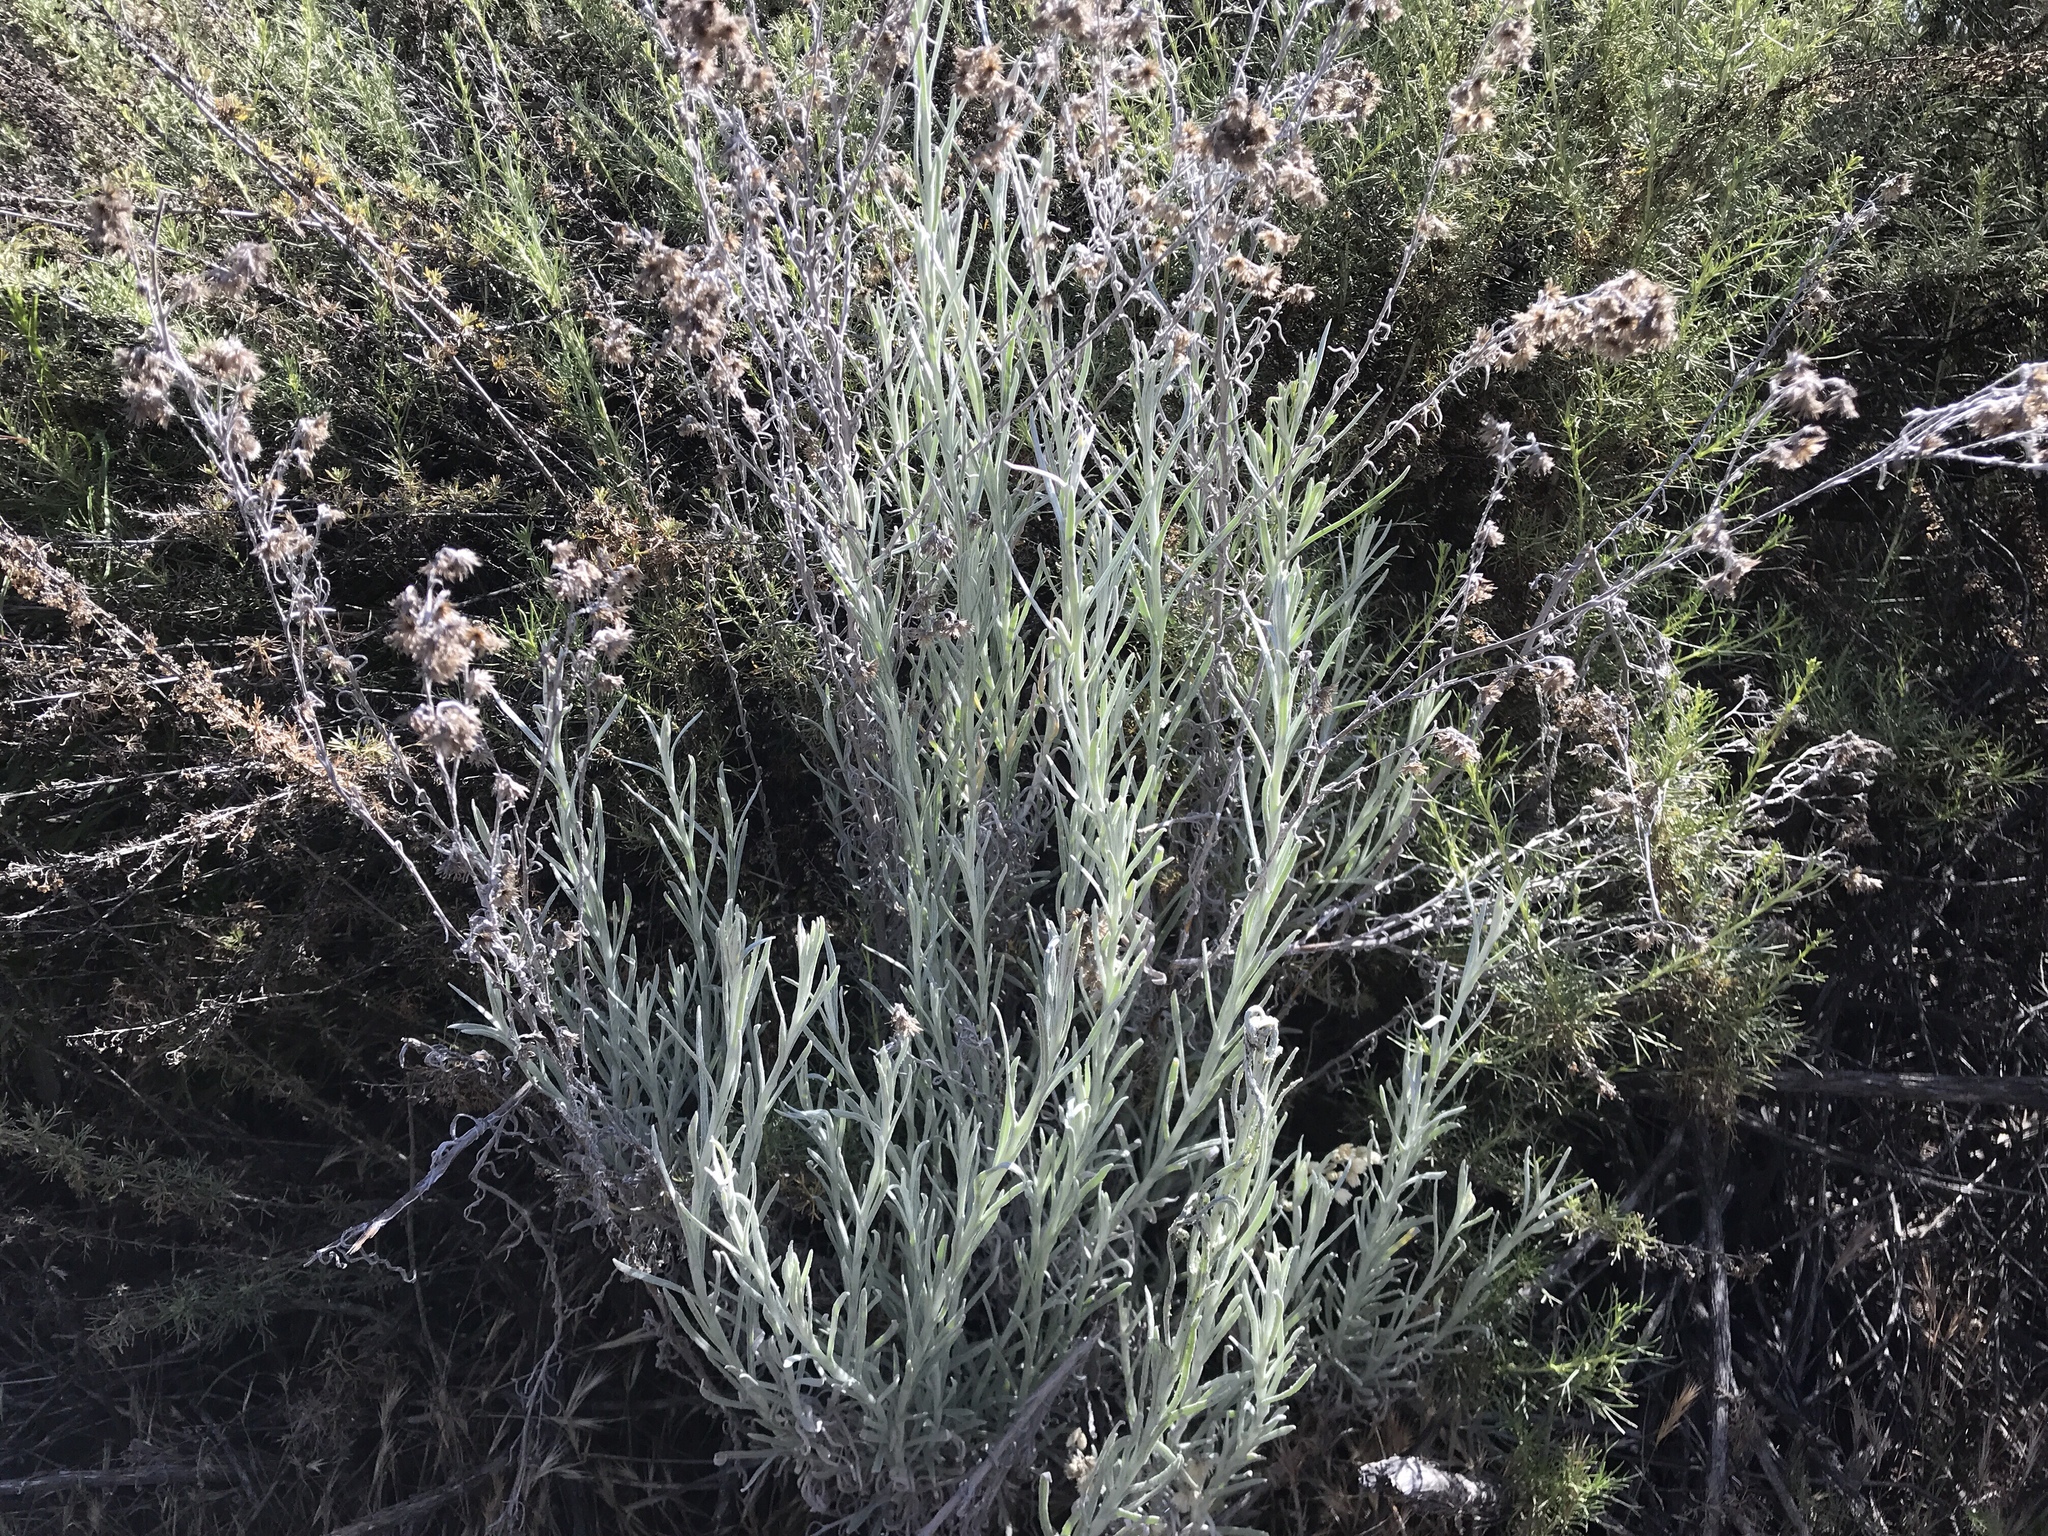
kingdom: Plantae
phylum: Tracheophyta
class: Magnoliopsida
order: Asterales
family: Asteraceae
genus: Pseudognaphalium
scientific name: Pseudognaphalium beneolens
